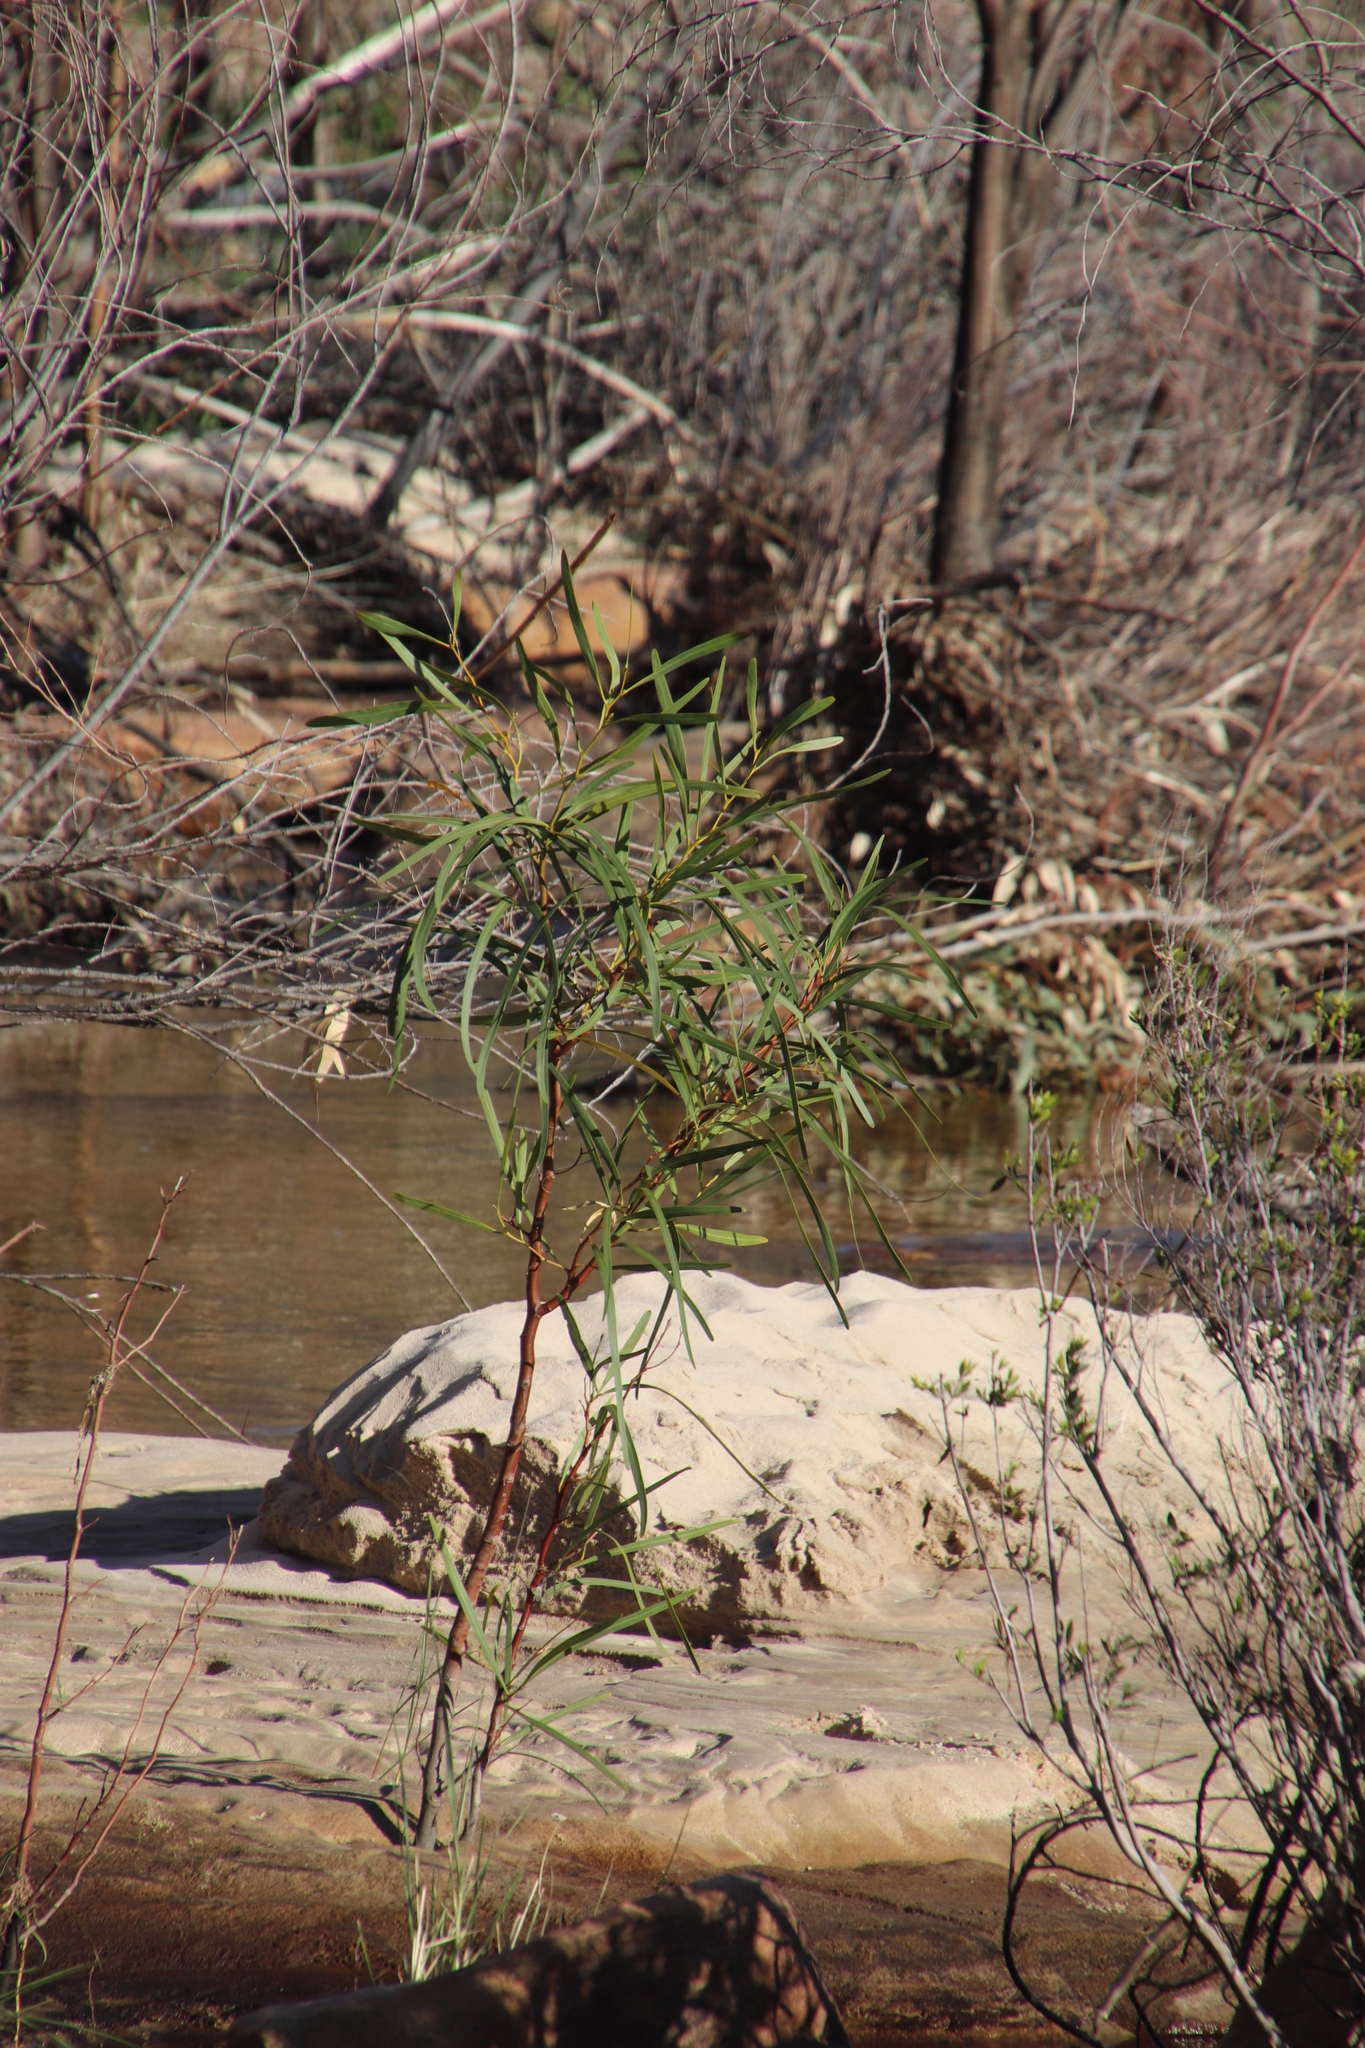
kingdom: Plantae
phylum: Tracheophyta
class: Magnoliopsida
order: Fabales
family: Fabaceae
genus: Acacia
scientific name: Acacia saligna
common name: Orange wattle
